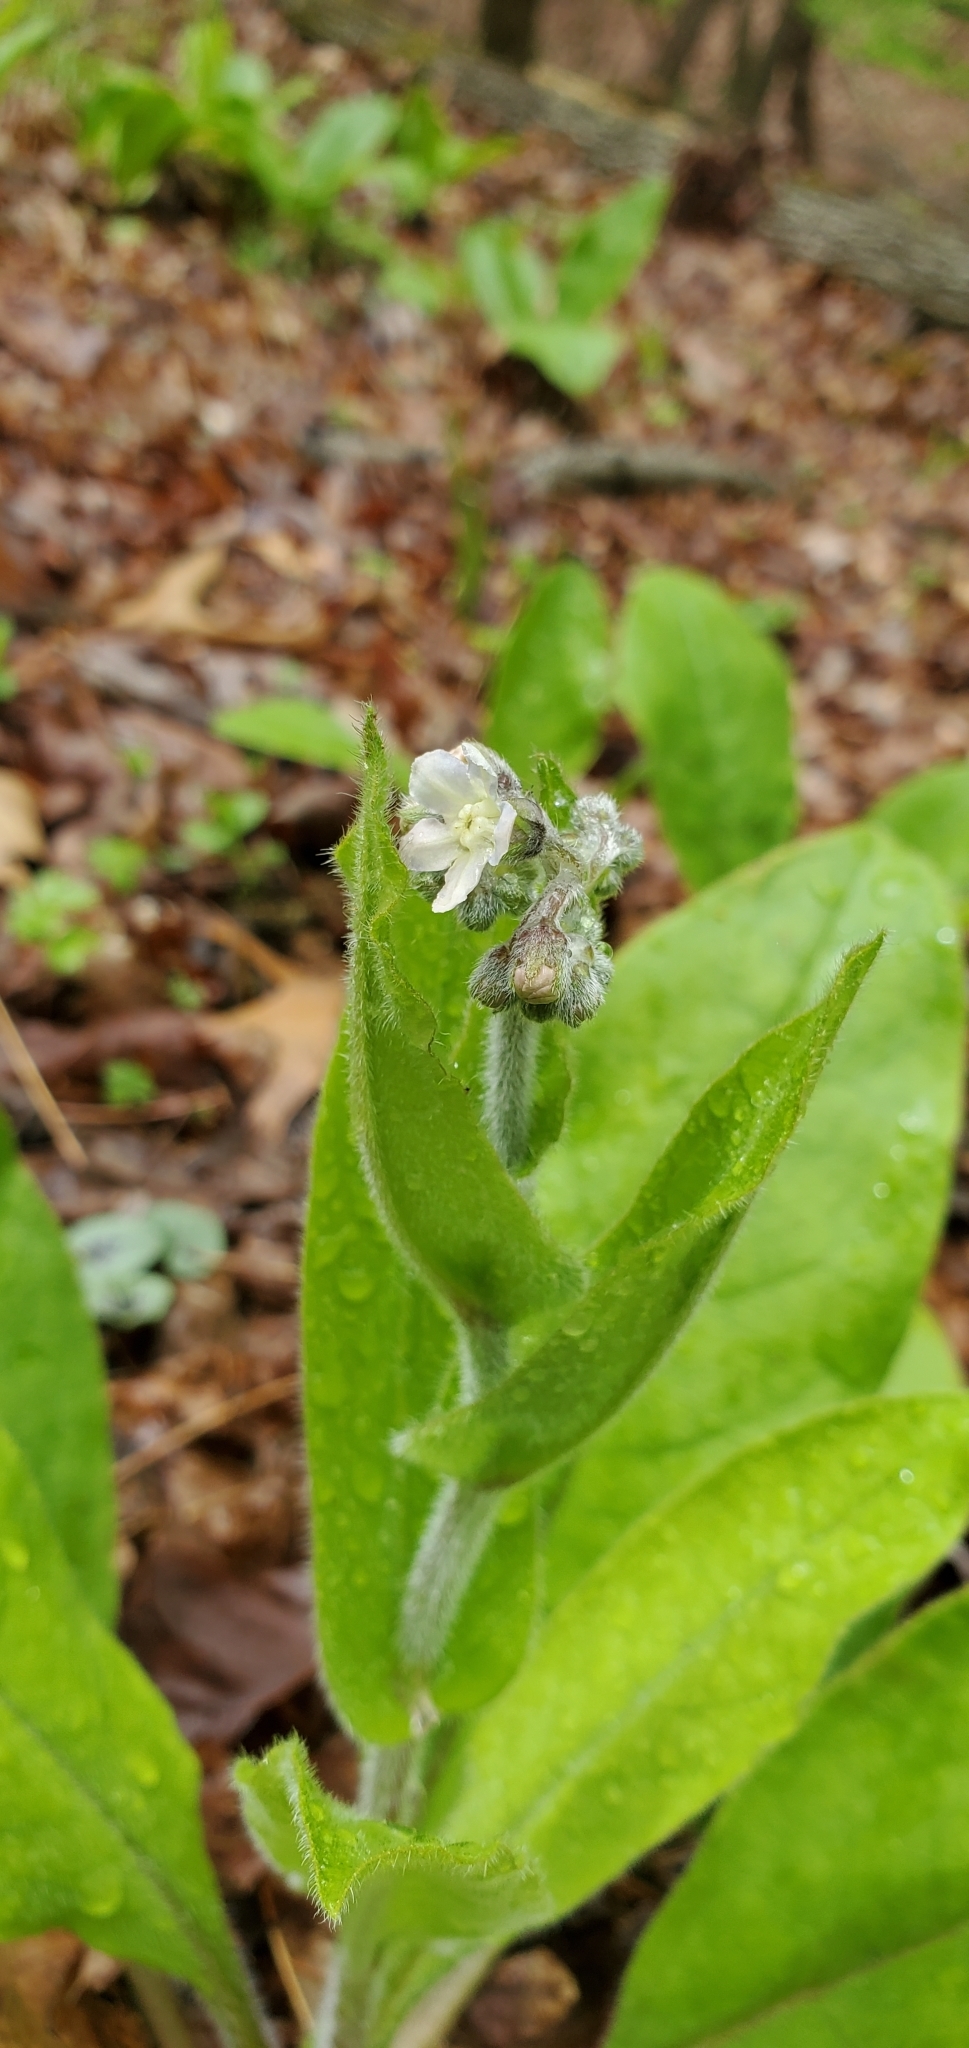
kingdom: Plantae
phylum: Tracheophyta
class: Magnoliopsida
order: Boraginales
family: Boraginaceae
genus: Andersonglossum
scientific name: Andersonglossum virginianum
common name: Wild comfrey
